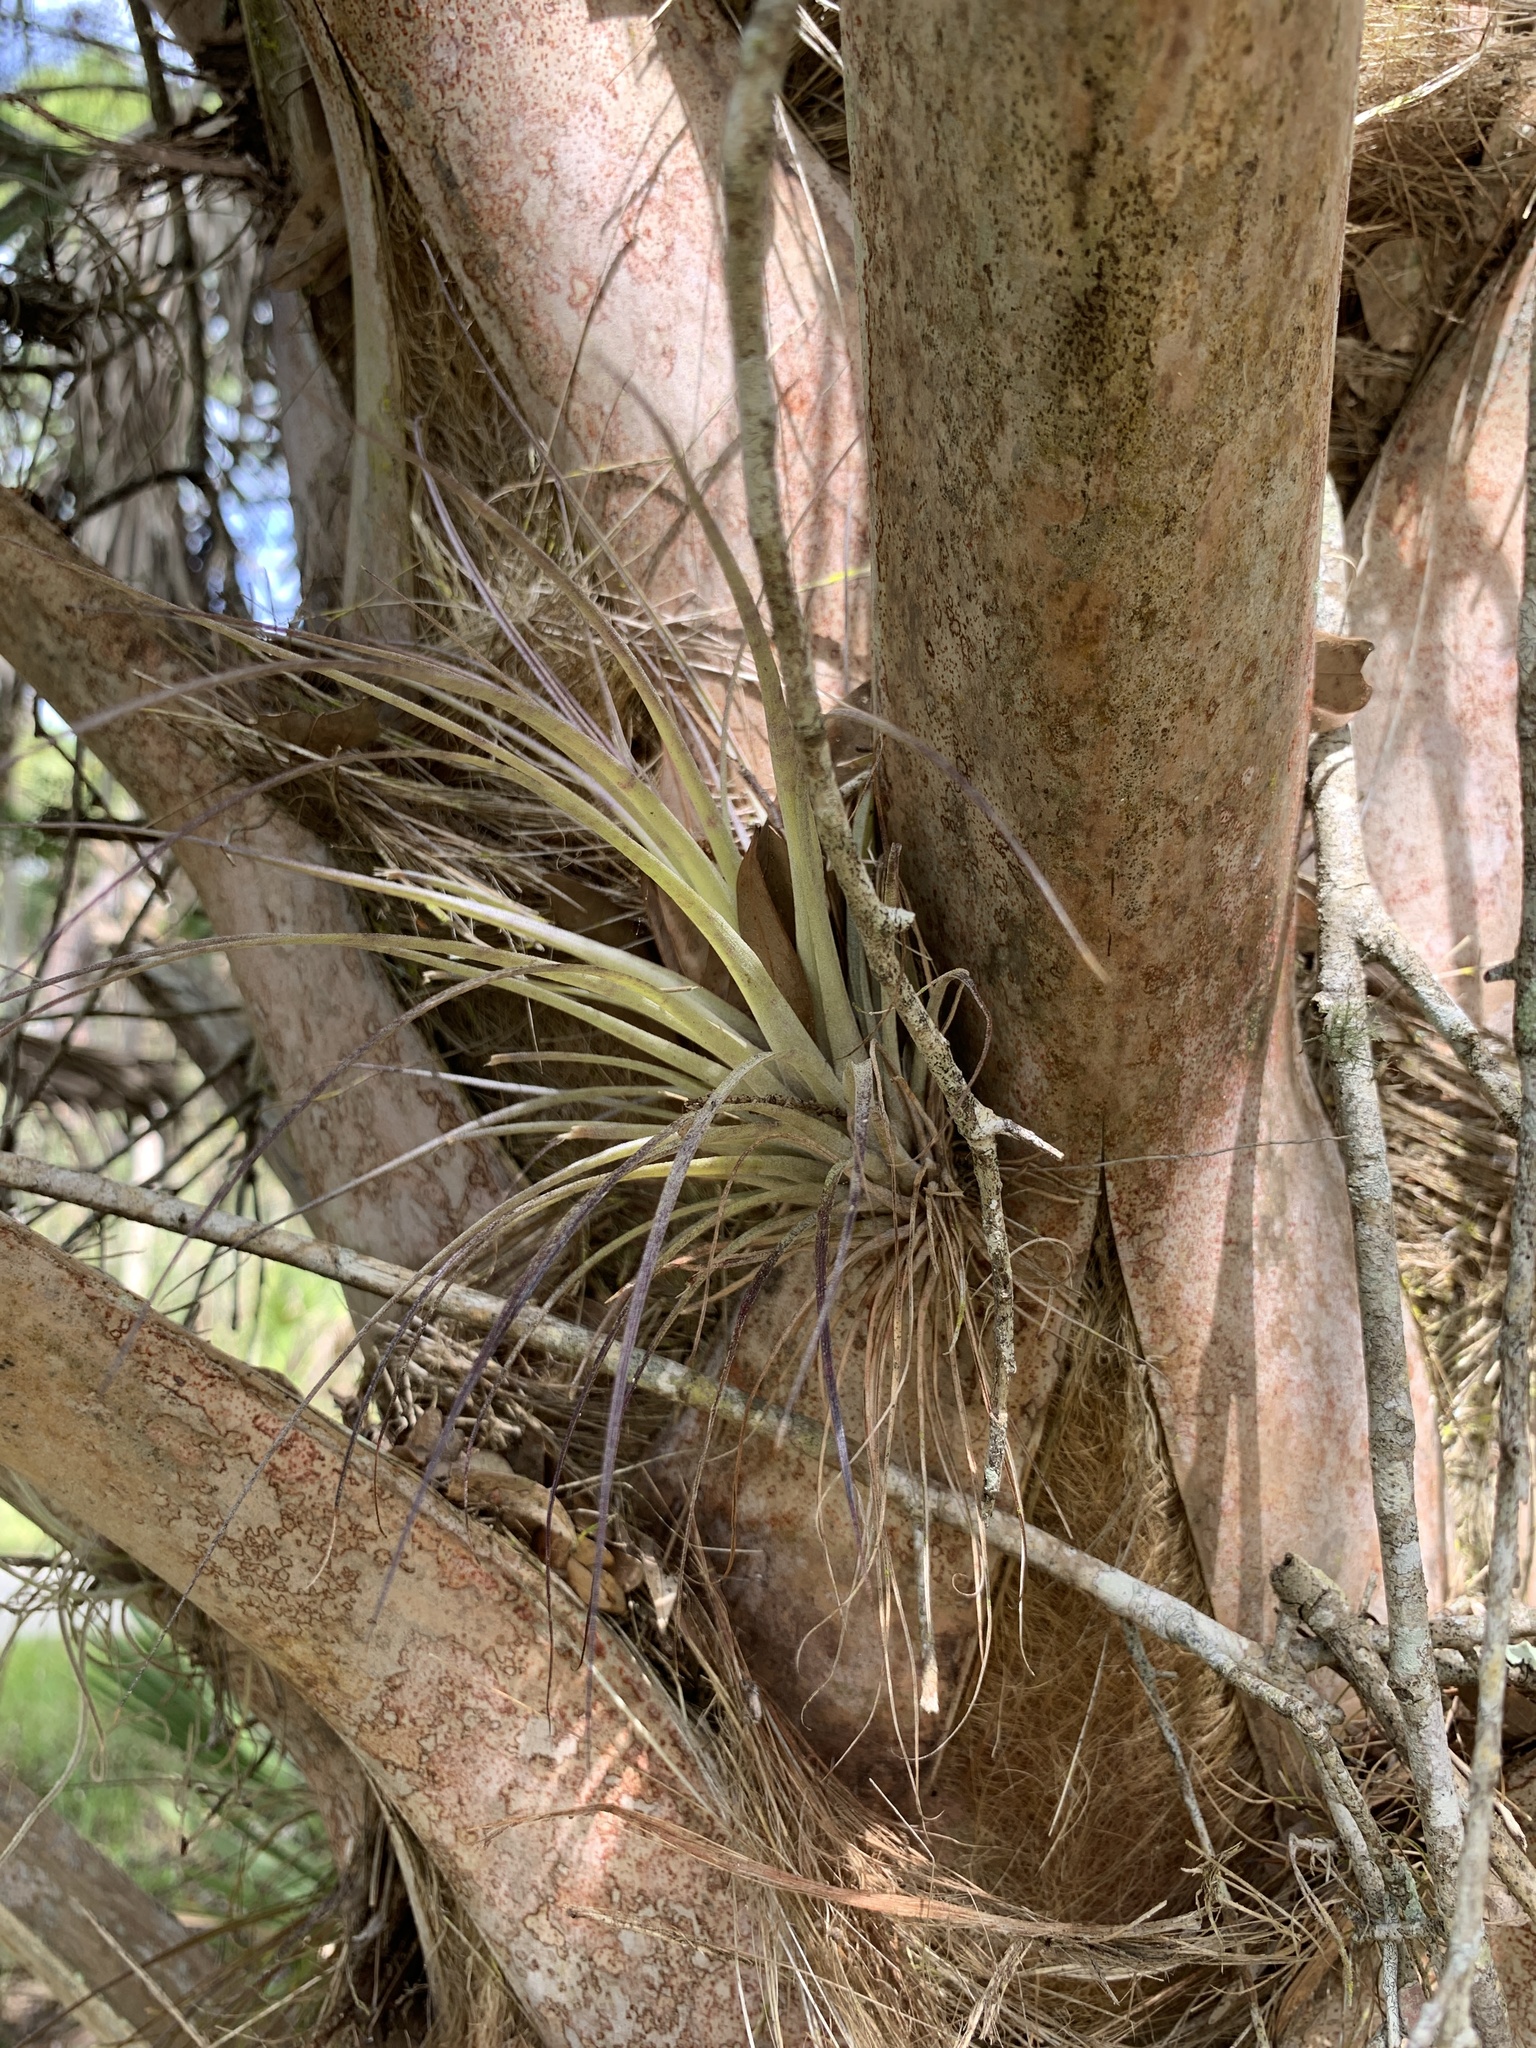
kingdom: Plantae
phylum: Tracheophyta
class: Liliopsida
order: Poales
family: Bromeliaceae
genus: Tillandsia
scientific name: Tillandsia fasciculata
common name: Giant airplant
